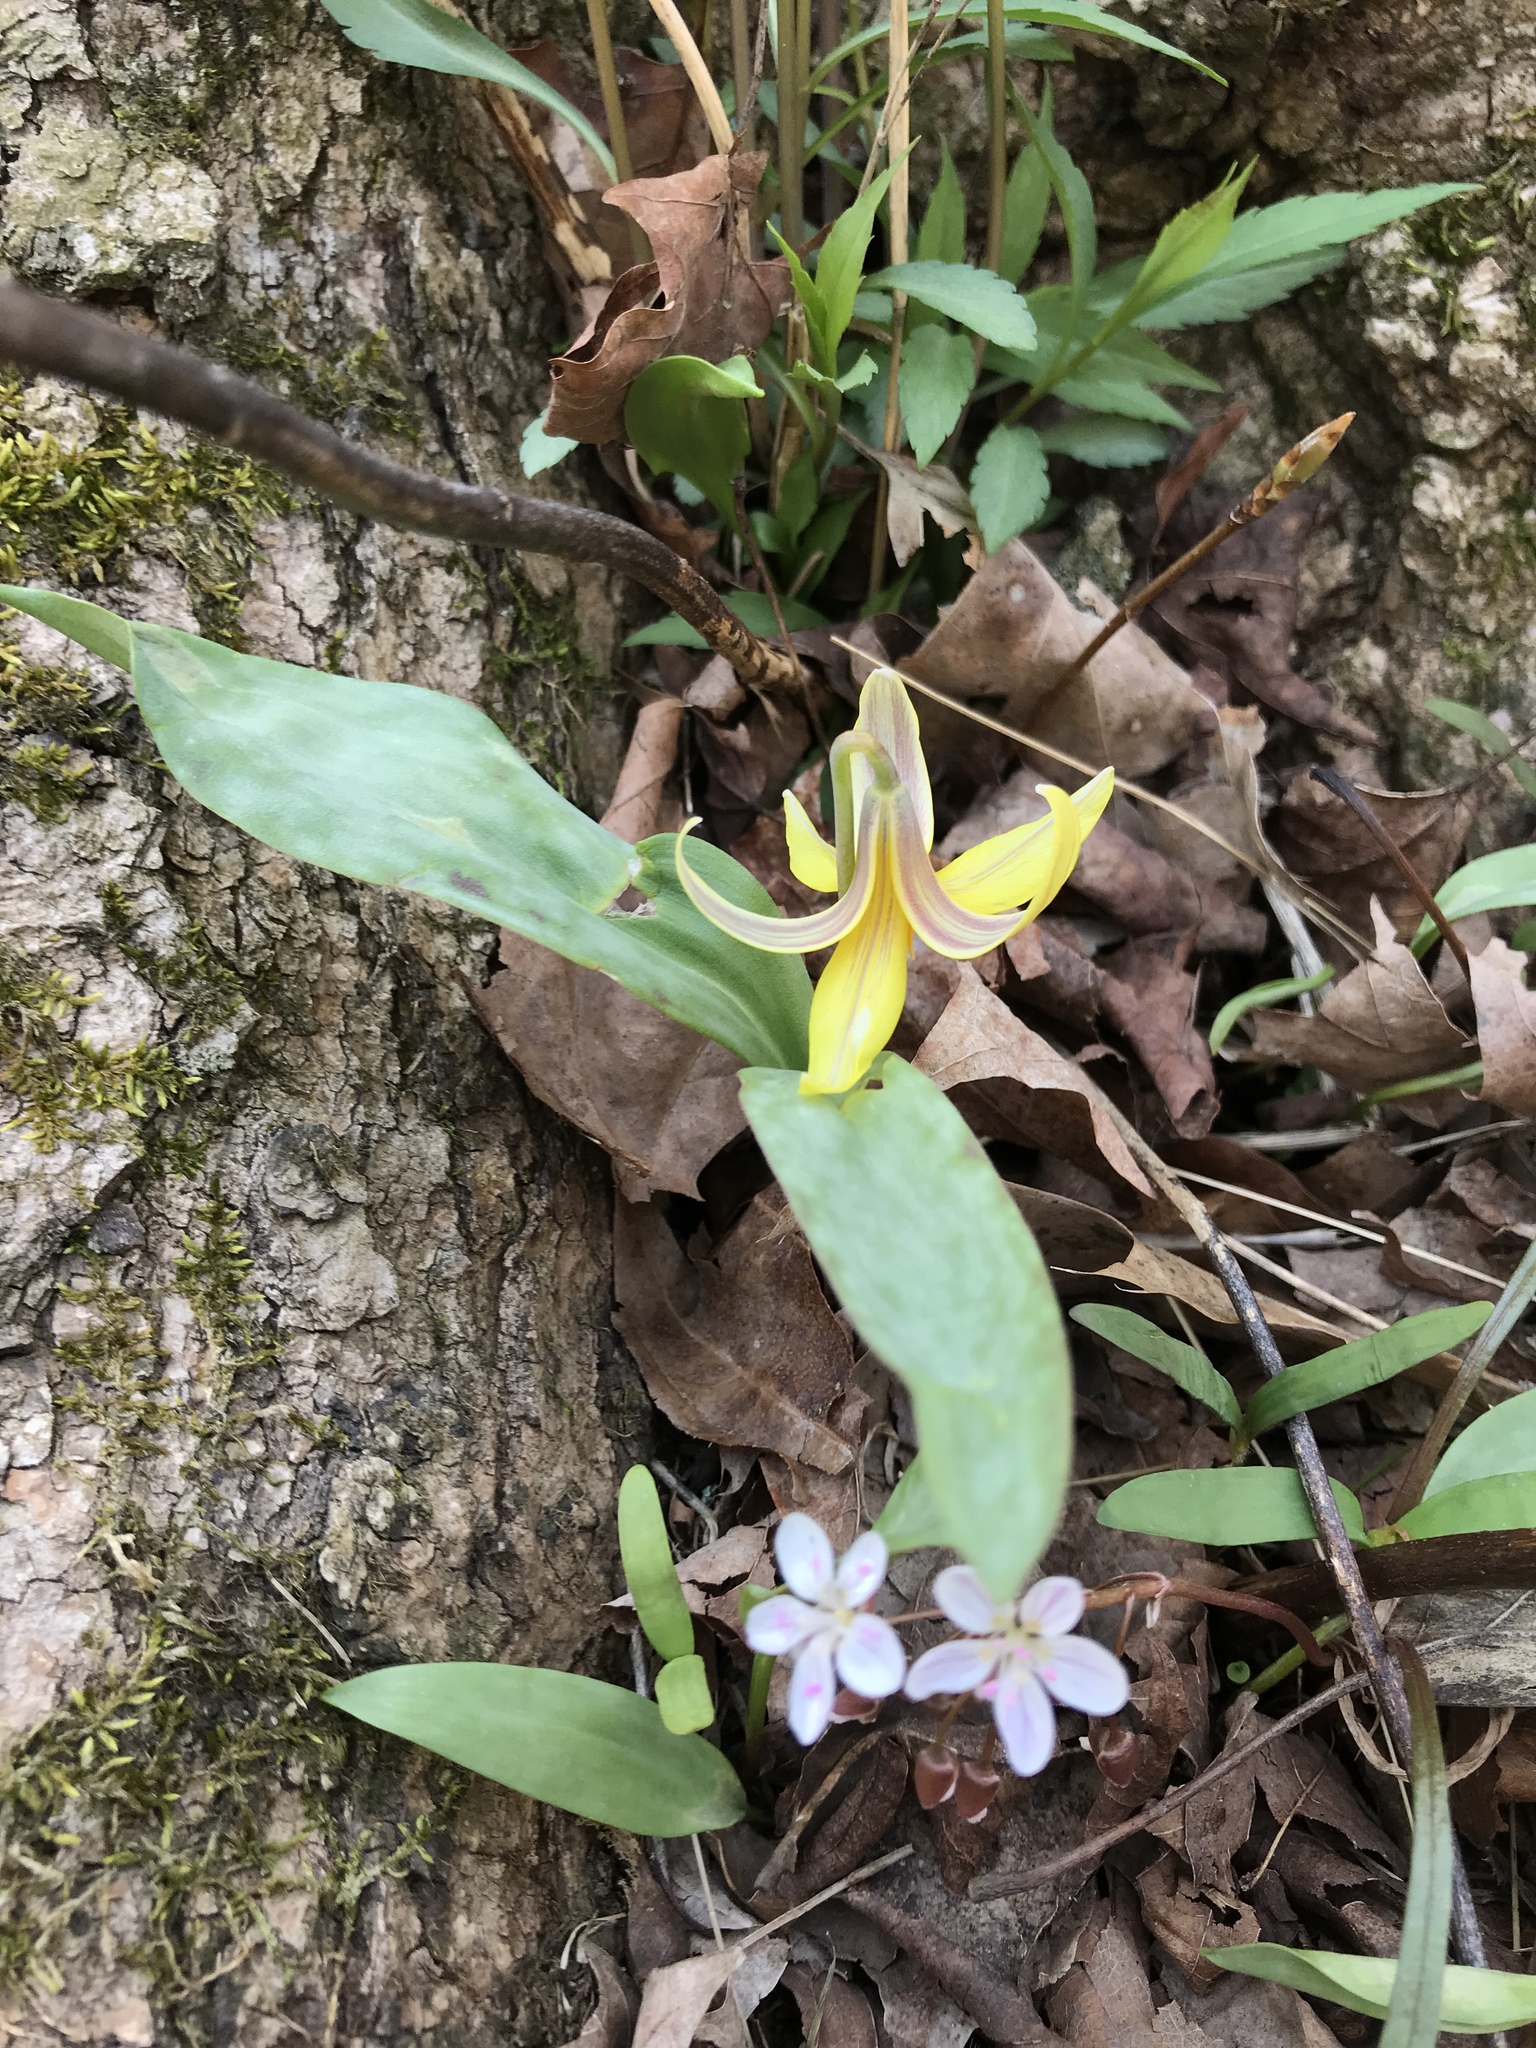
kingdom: Plantae
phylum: Tracheophyta
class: Liliopsida
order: Liliales
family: Liliaceae
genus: Erythronium
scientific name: Erythronium americanum
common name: Yellow adder's-tongue
